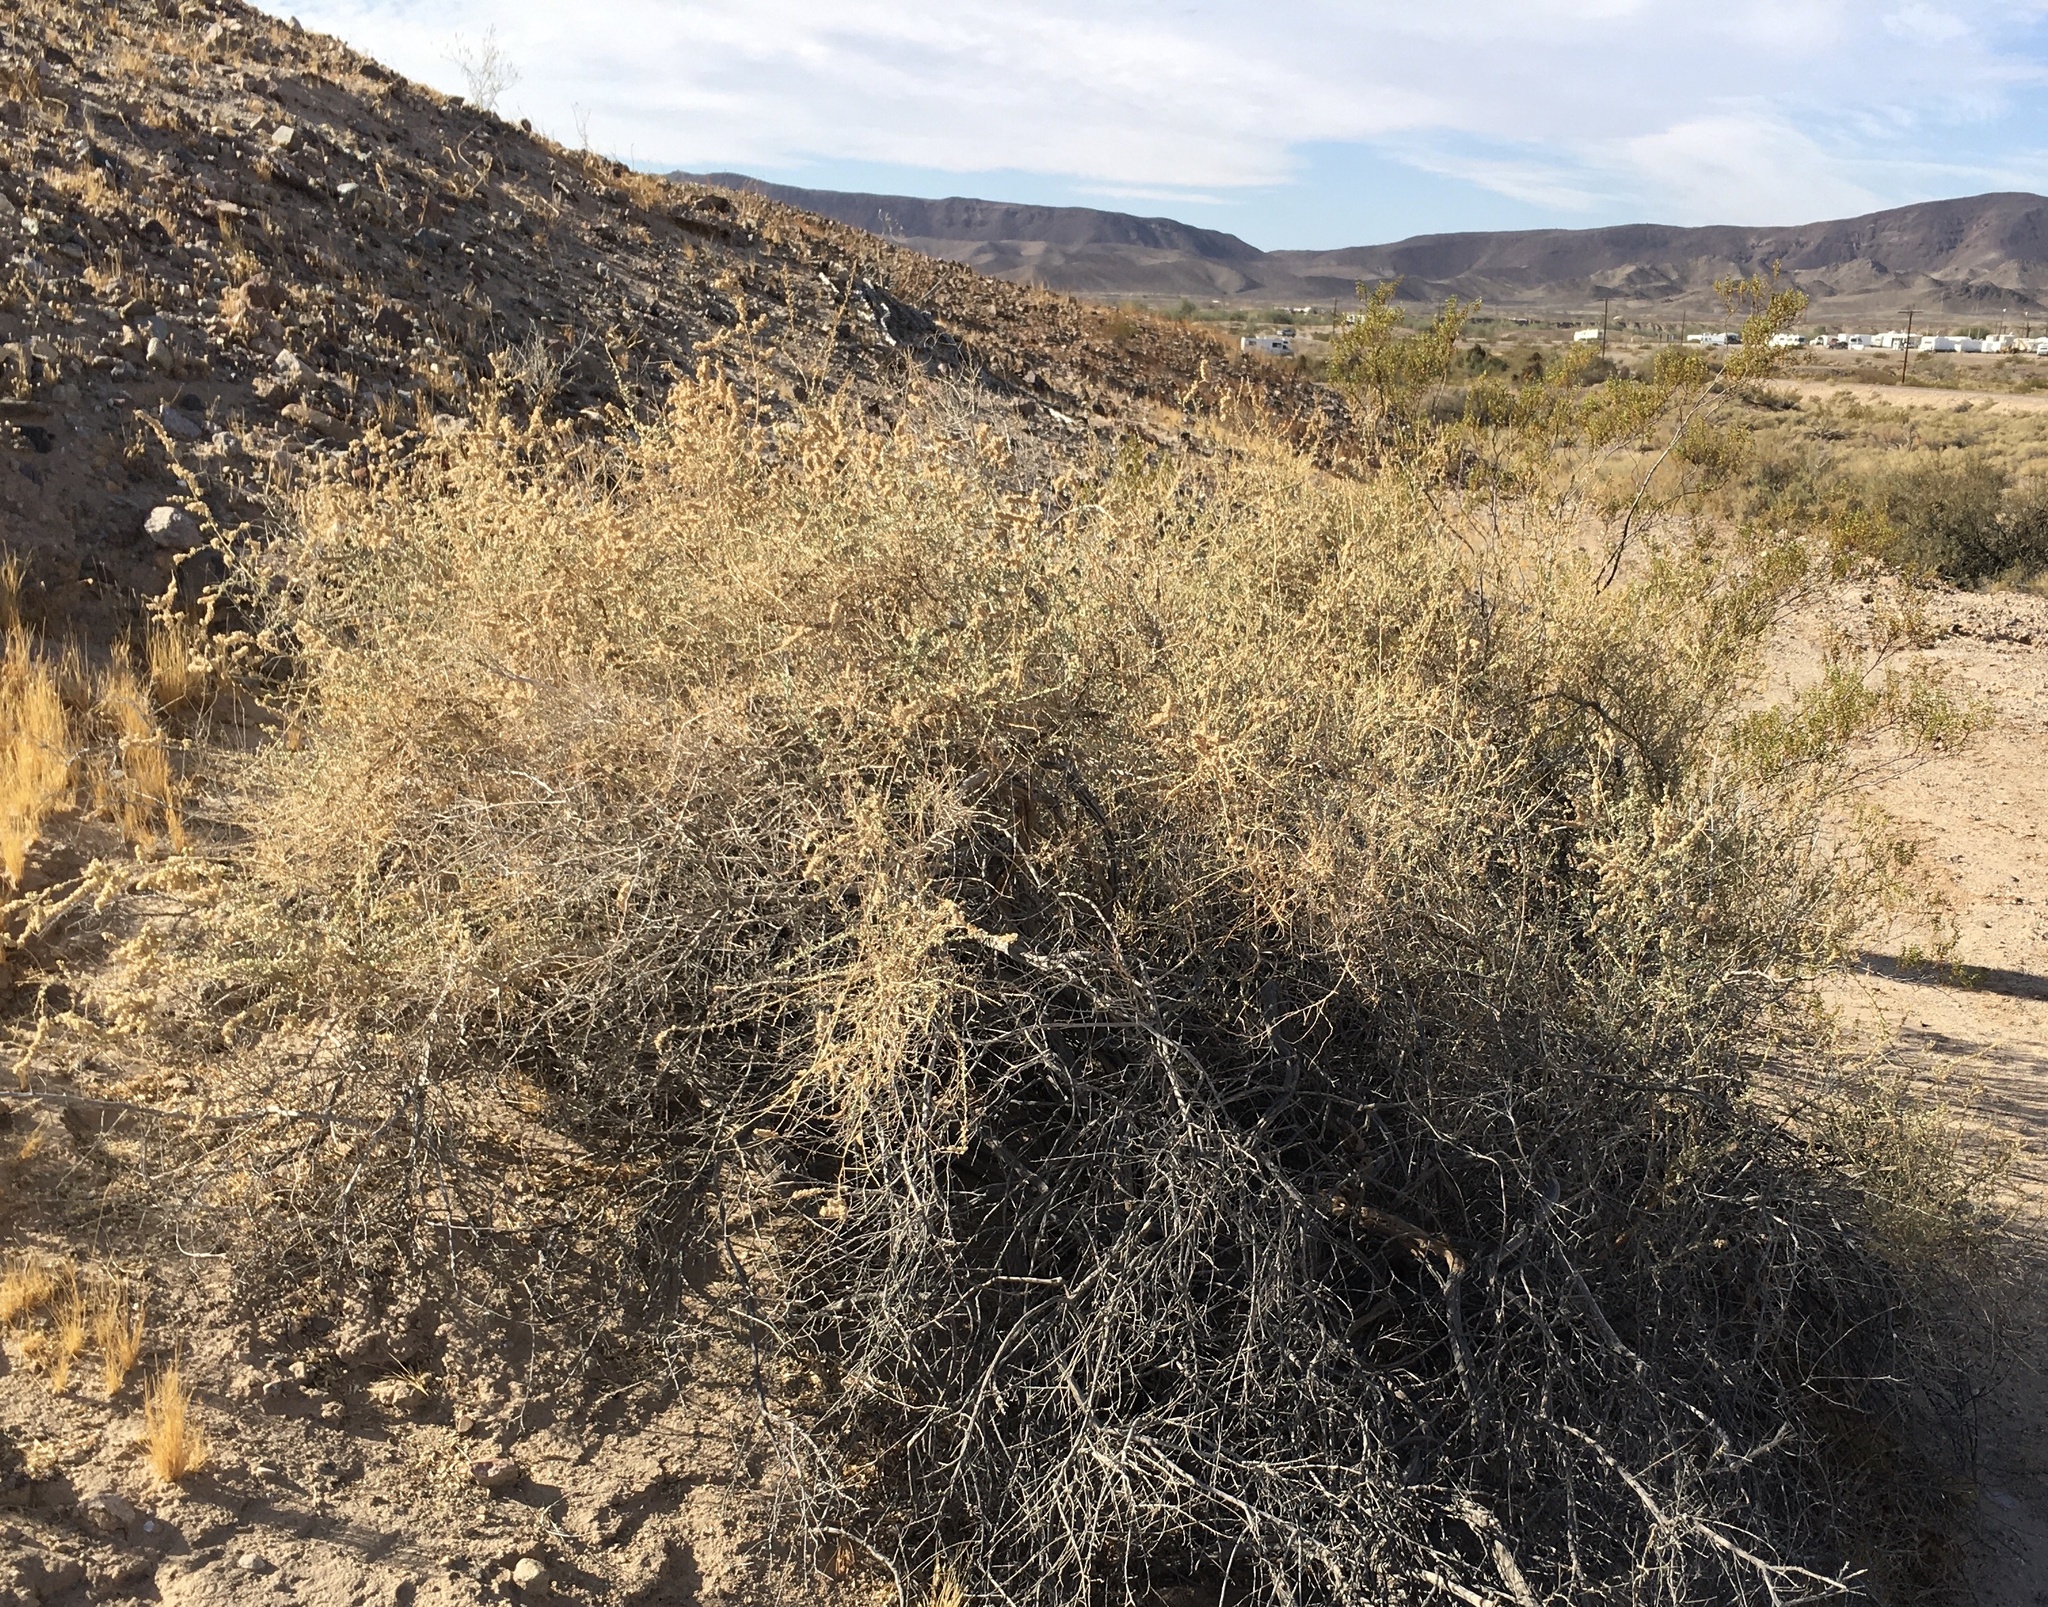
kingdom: Plantae
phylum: Tracheophyta
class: Magnoliopsida
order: Caryophyllales
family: Amaranthaceae
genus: Atriplex
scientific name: Atriplex polycarpa
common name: Desert saltbush
